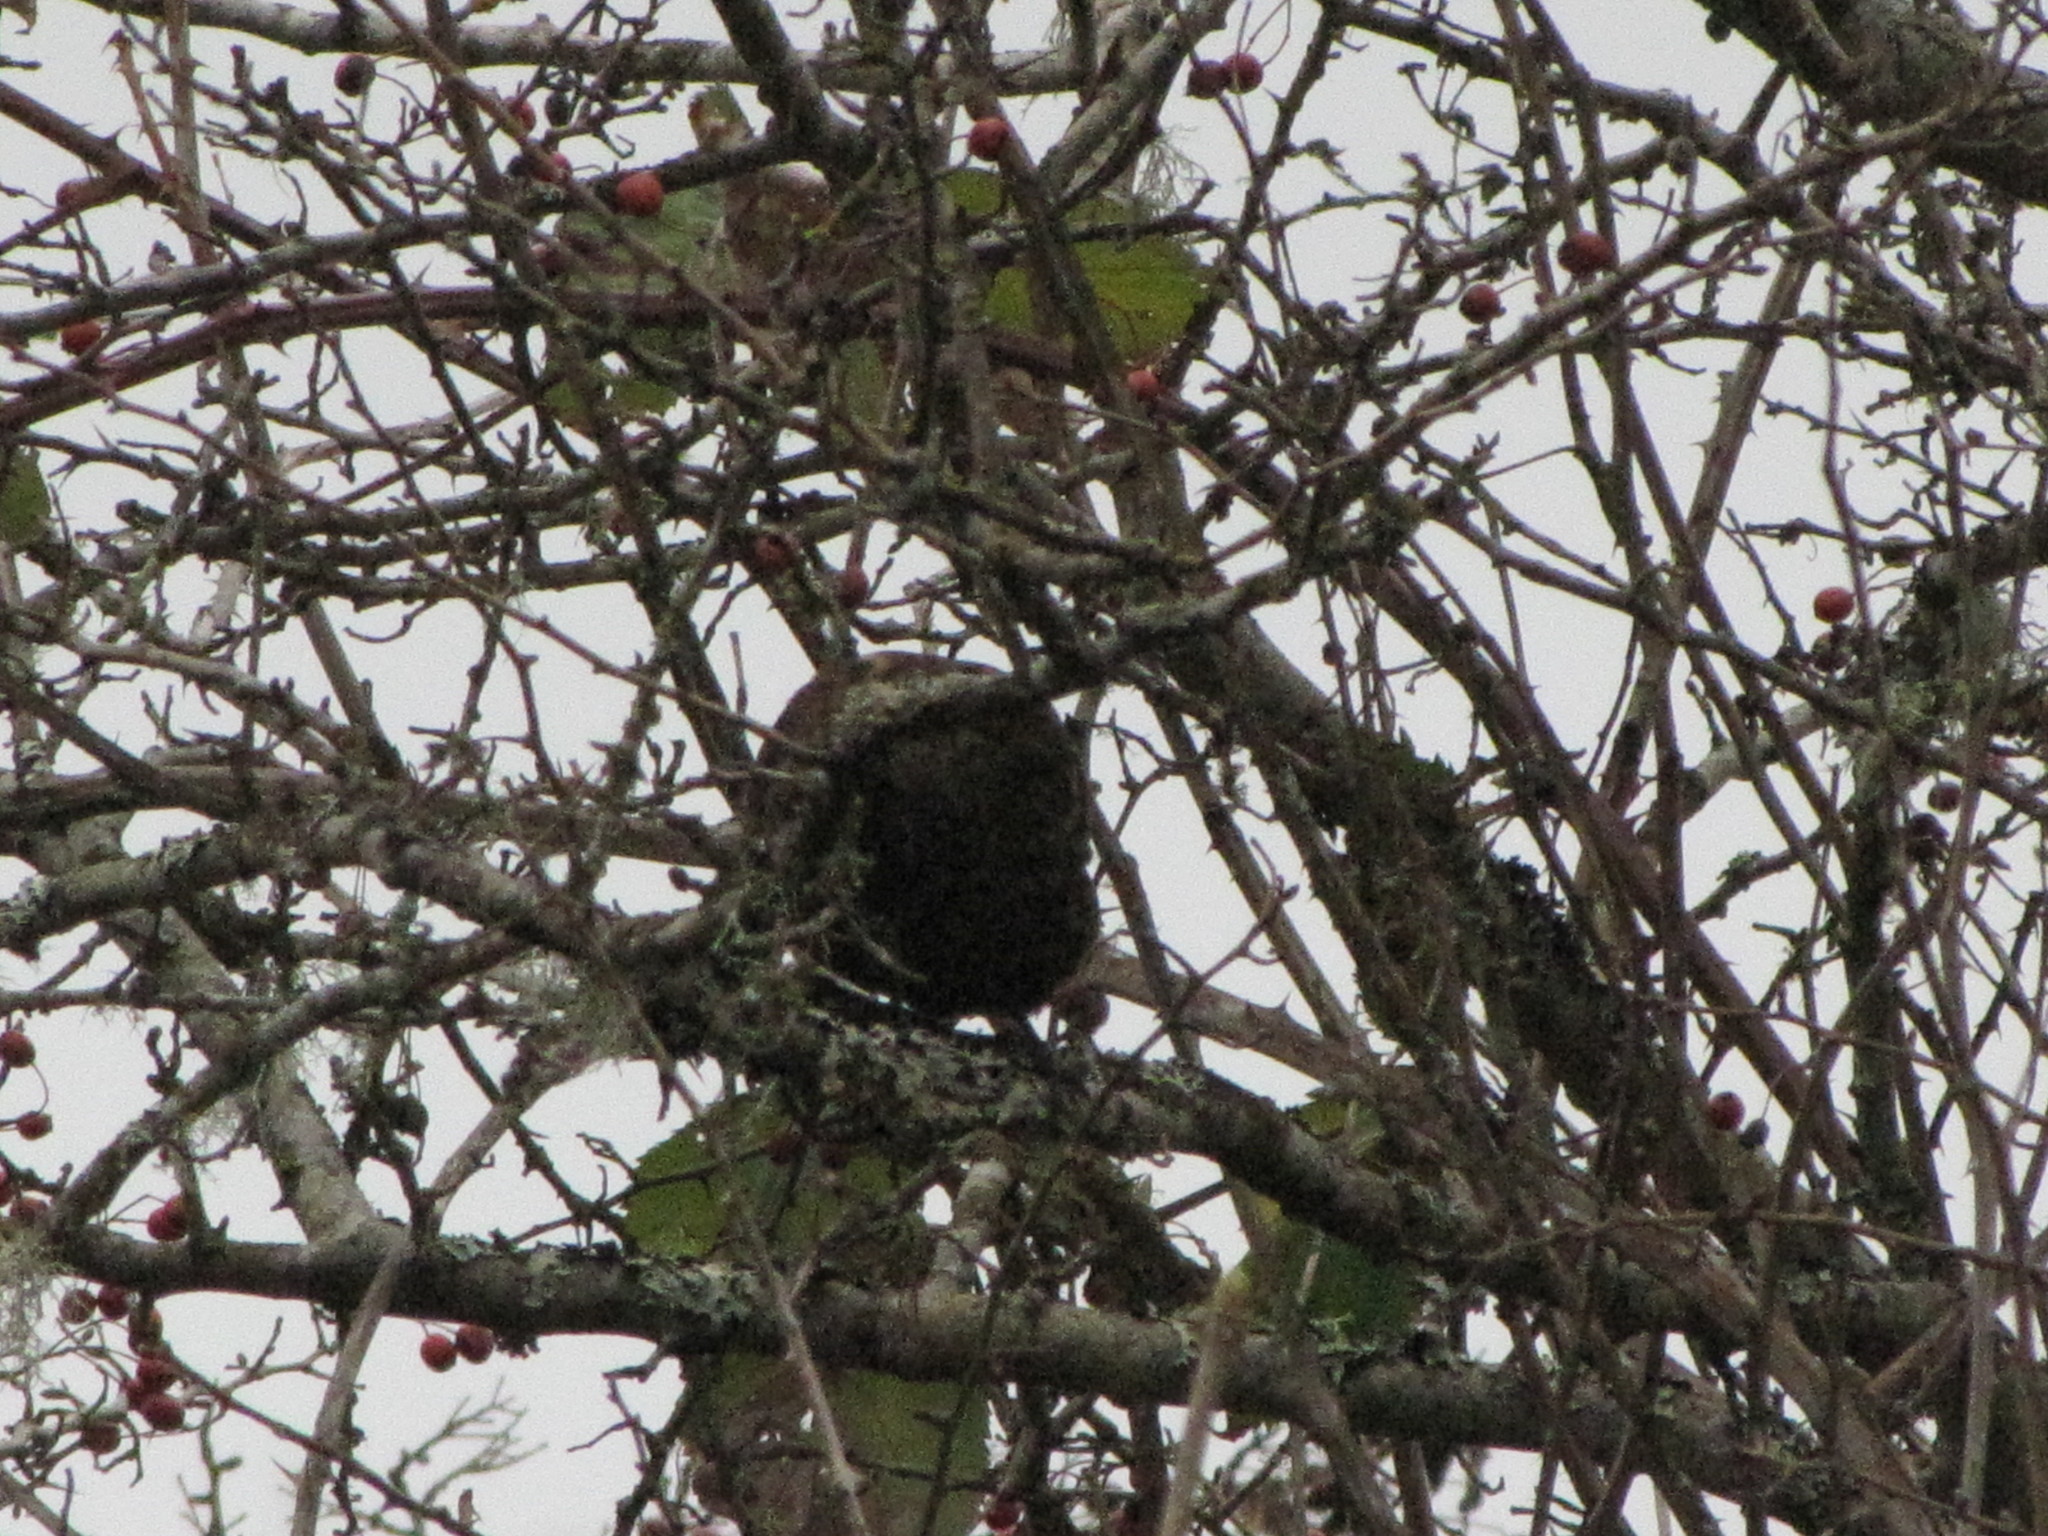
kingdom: Animalia
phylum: Chordata
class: Aves
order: Passeriformes
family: Icteridae
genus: Agelaius
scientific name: Agelaius phoeniceus
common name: Red-winged blackbird
